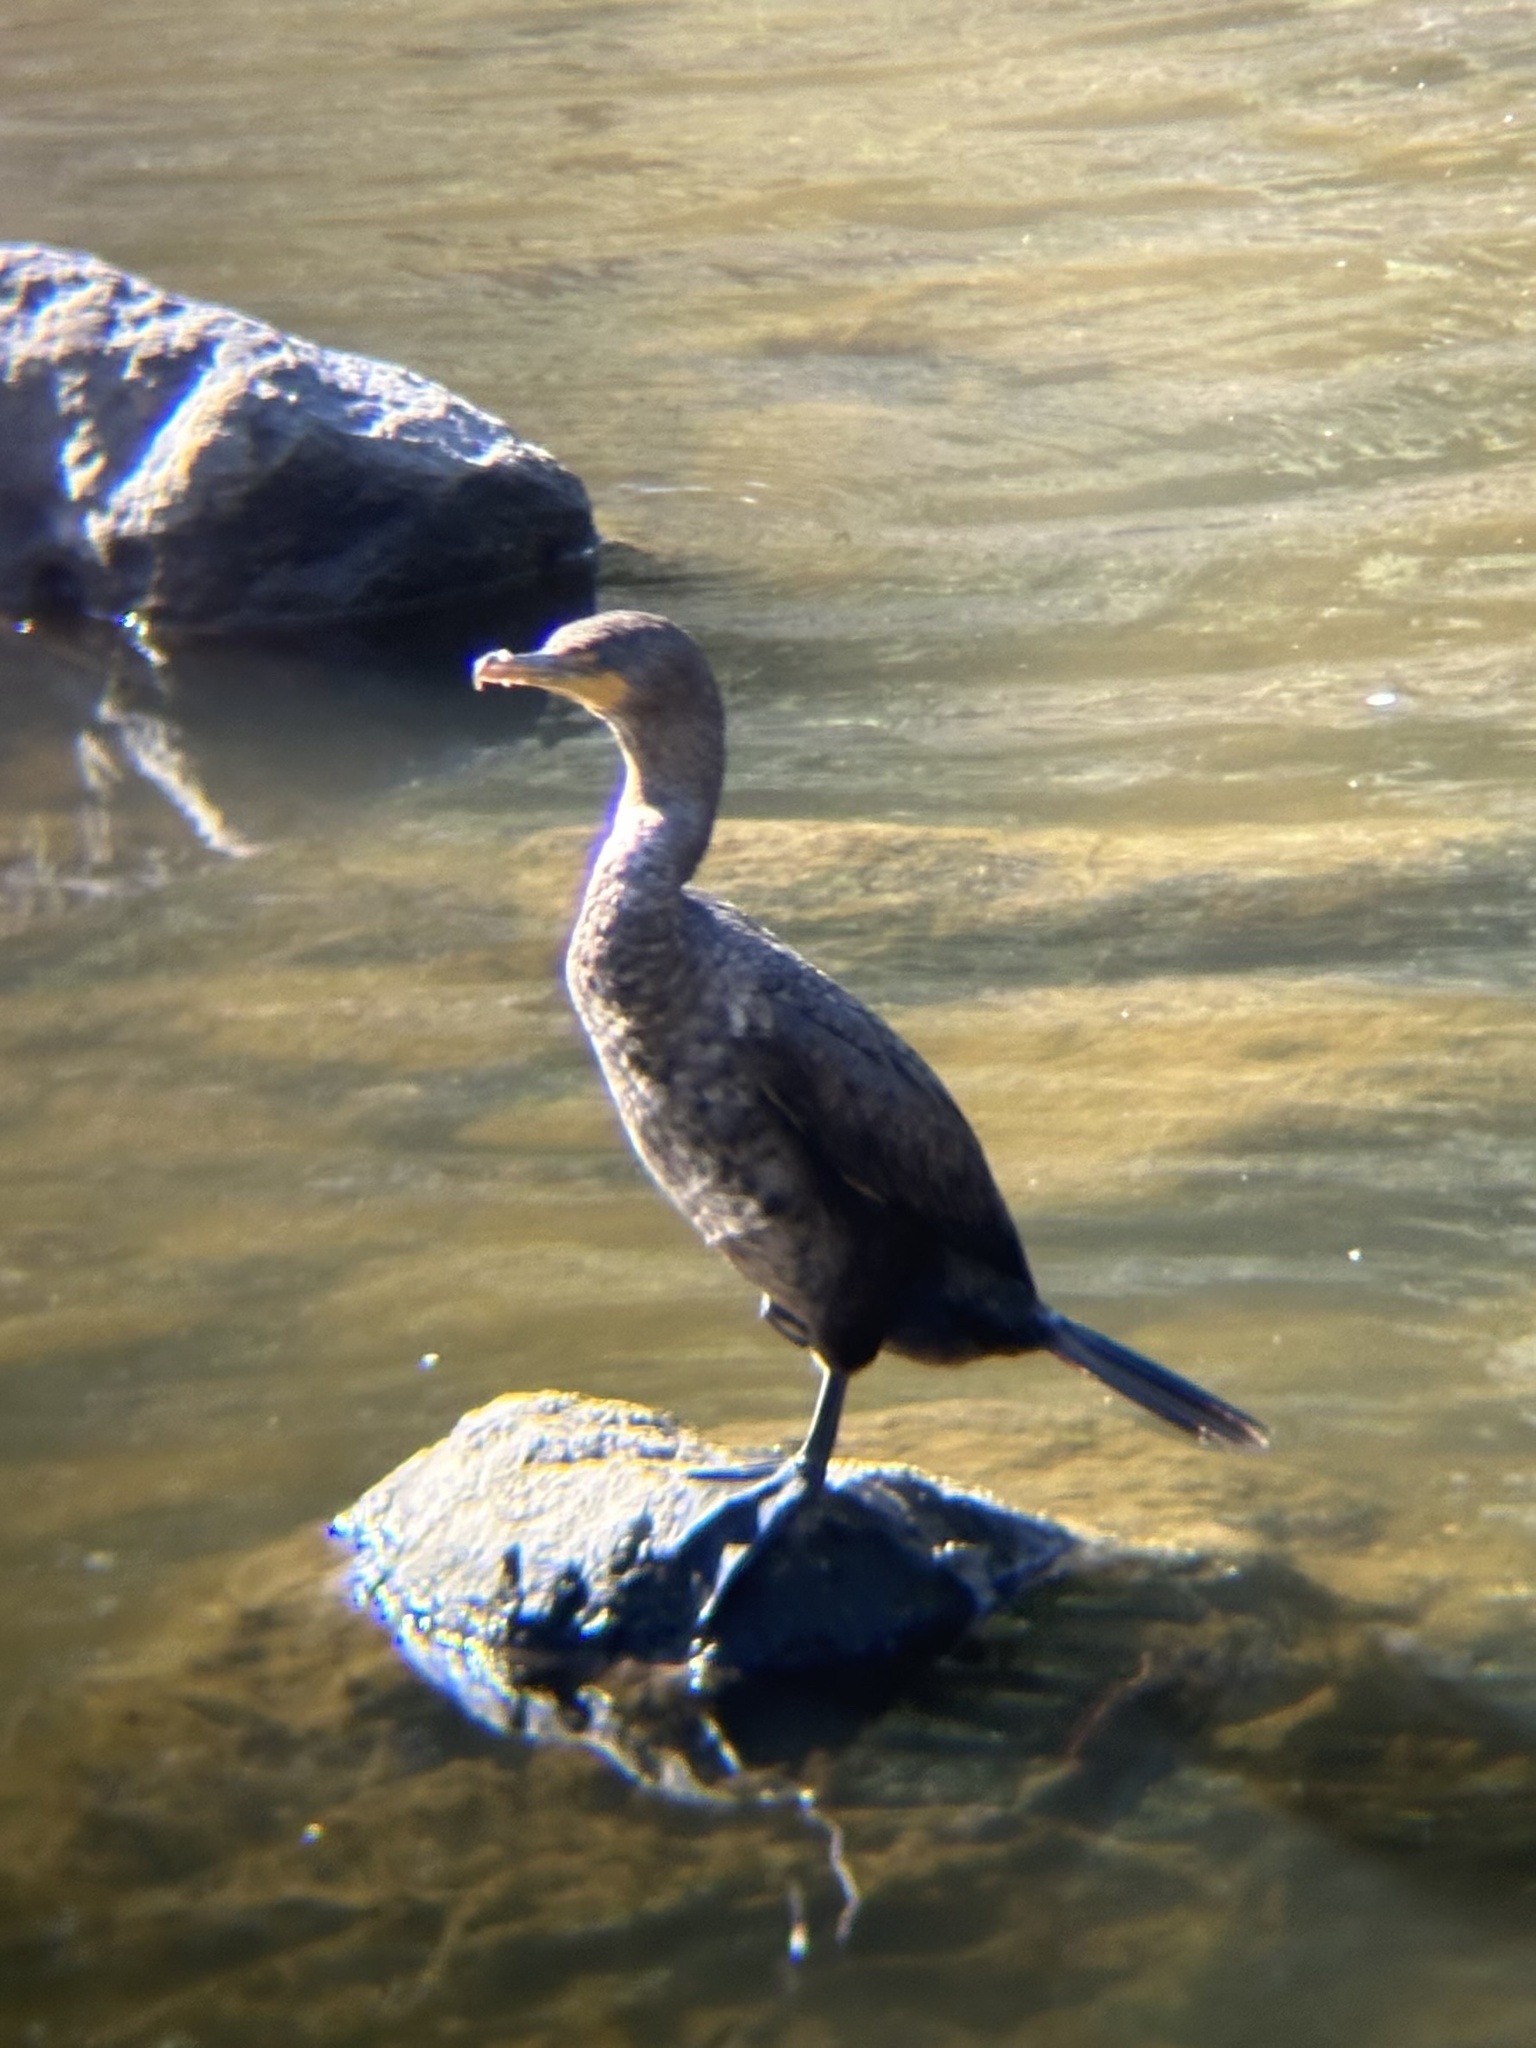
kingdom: Animalia
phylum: Chordata
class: Aves
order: Suliformes
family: Phalacrocoracidae
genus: Phalacrocorax
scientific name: Phalacrocorax auritus
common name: Double-crested cormorant
